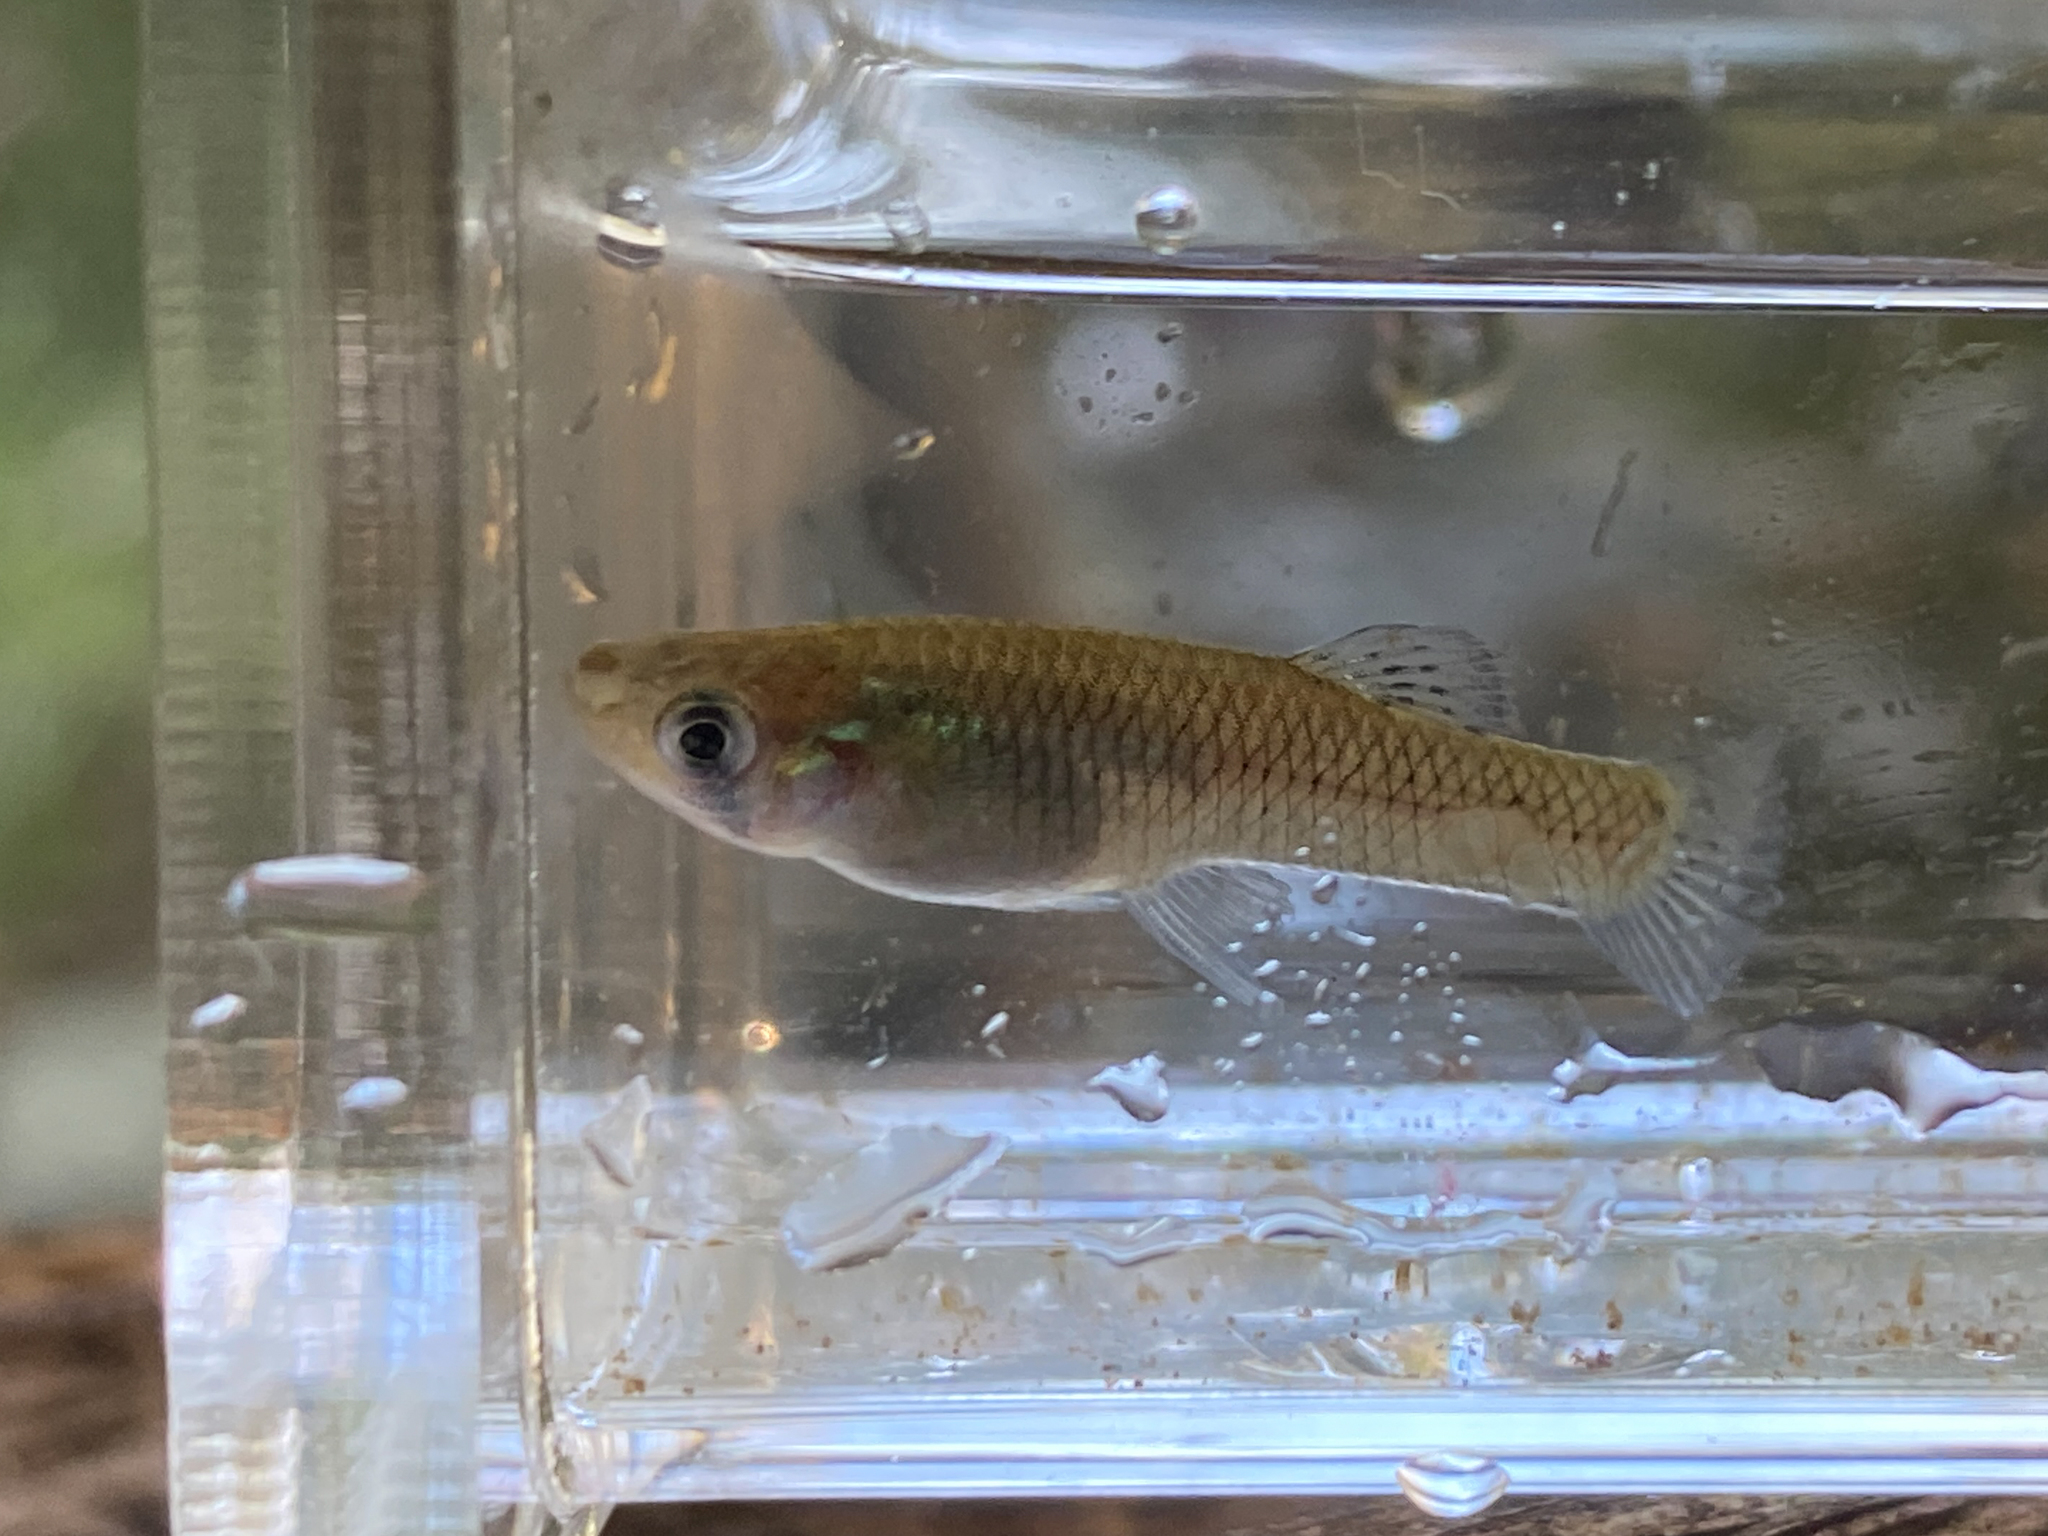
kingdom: Animalia
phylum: Chordata
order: Cyprinodontiformes
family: Poeciliidae
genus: Gambusia
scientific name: Gambusia holbrooki
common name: Eastern mosquitofish
